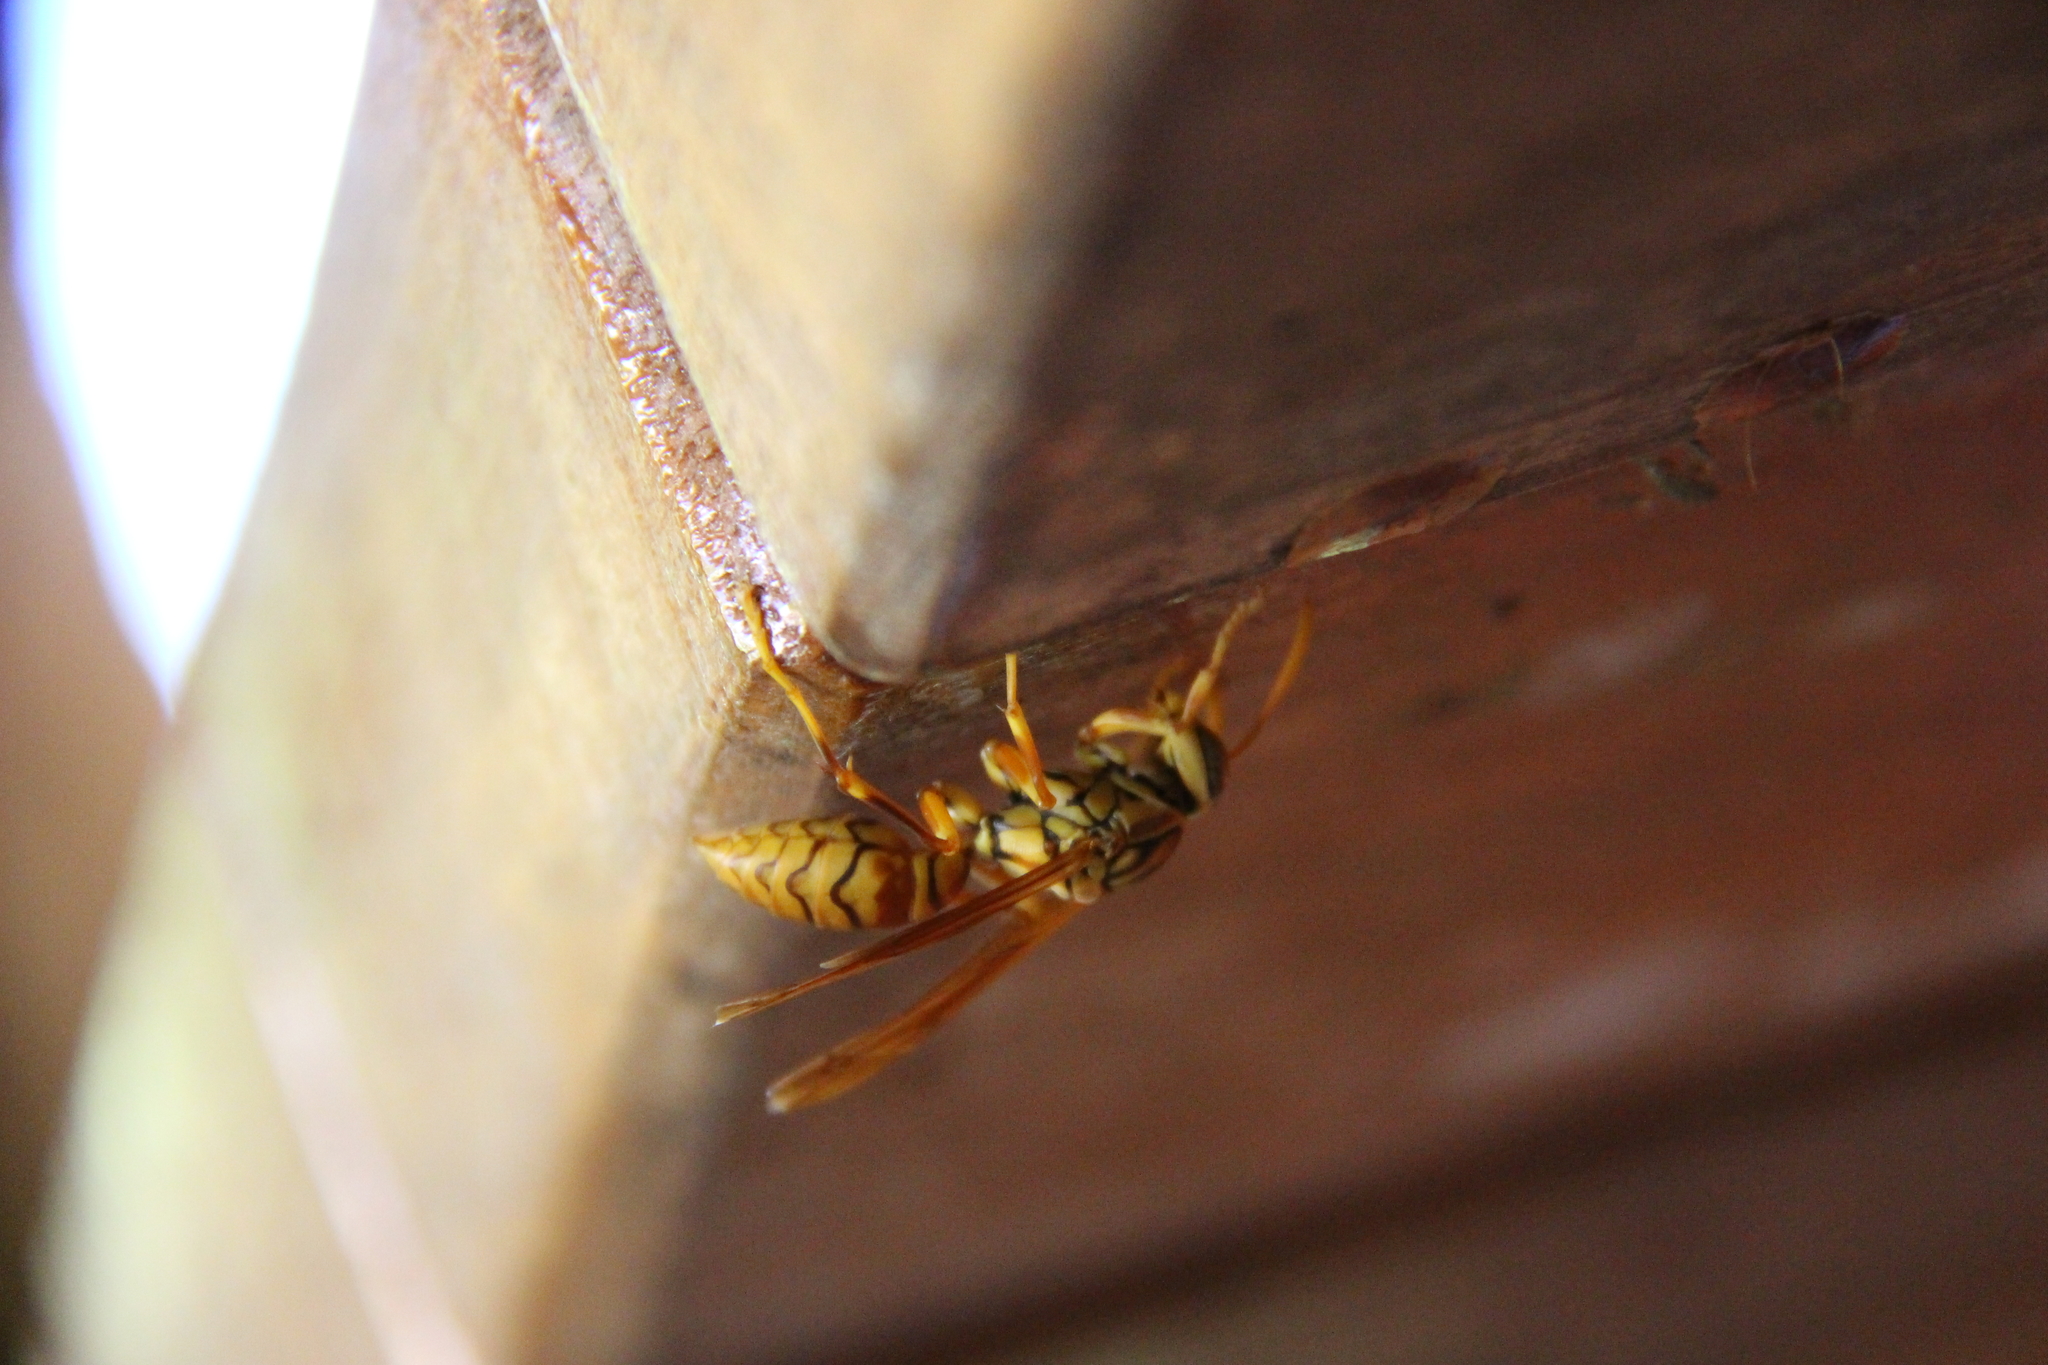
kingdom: Animalia
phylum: Arthropoda
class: Insecta
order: Hymenoptera
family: Eumenidae
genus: Polistes
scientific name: Polistes olivaceus
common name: Paper wasp
